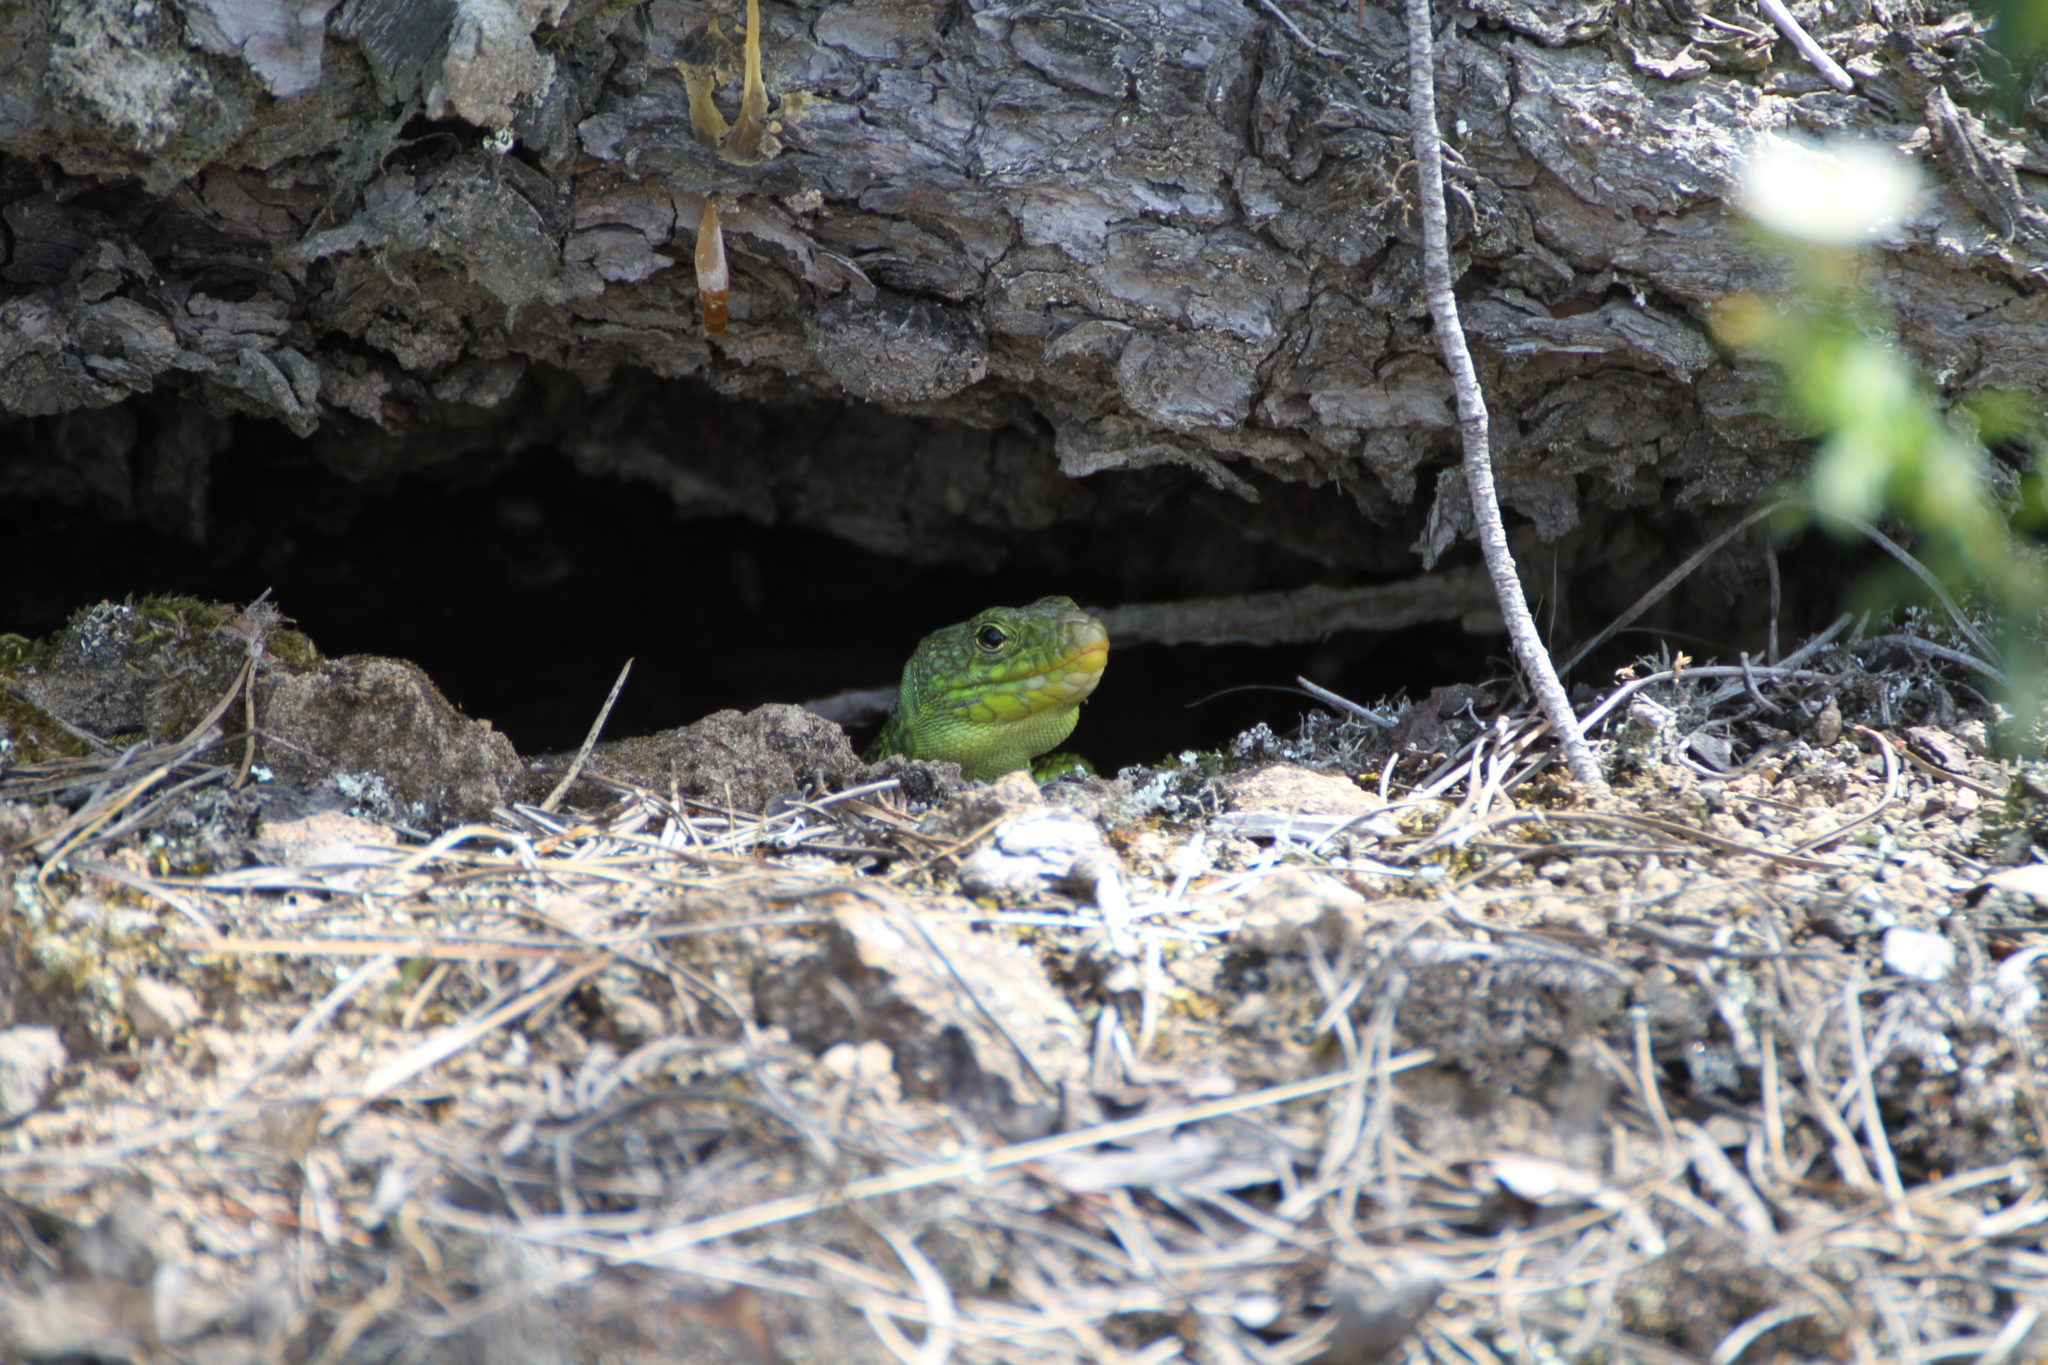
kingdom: Animalia
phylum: Chordata
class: Squamata
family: Lacertidae
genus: Timon
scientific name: Timon lepidus
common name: Ocellated lizard
